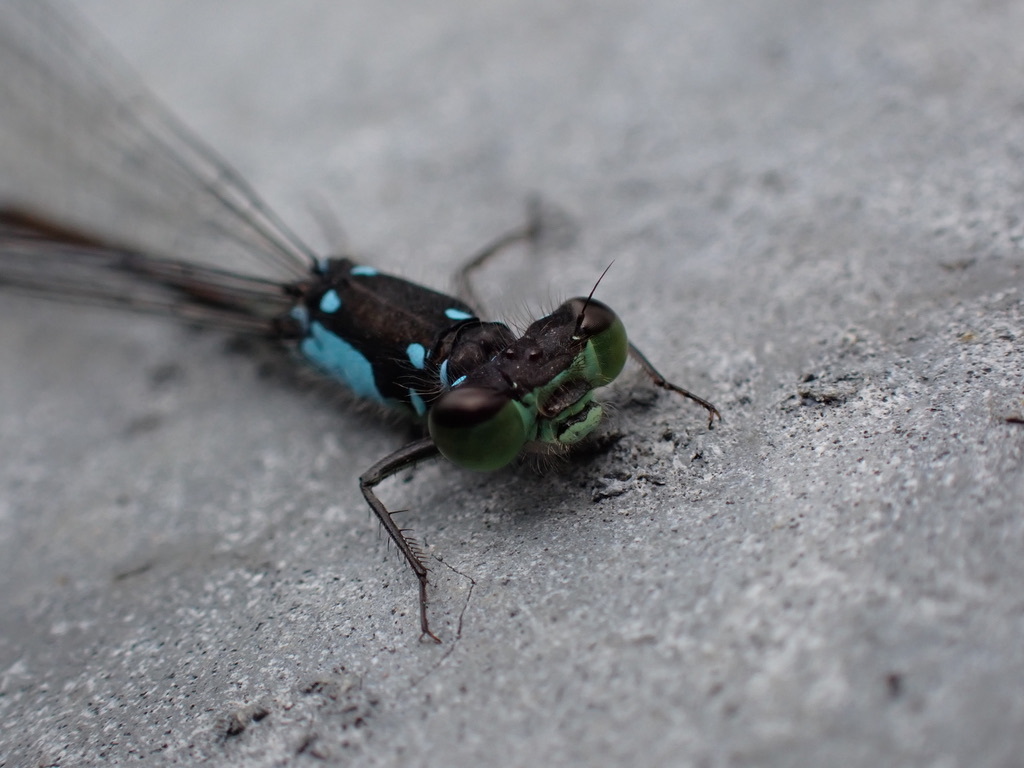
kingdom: Animalia
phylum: Arthropoda
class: Insecta
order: Odonata
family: Coenagrionidae
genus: Ischnura
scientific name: Ischnura cervula
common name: Pacific forktail
